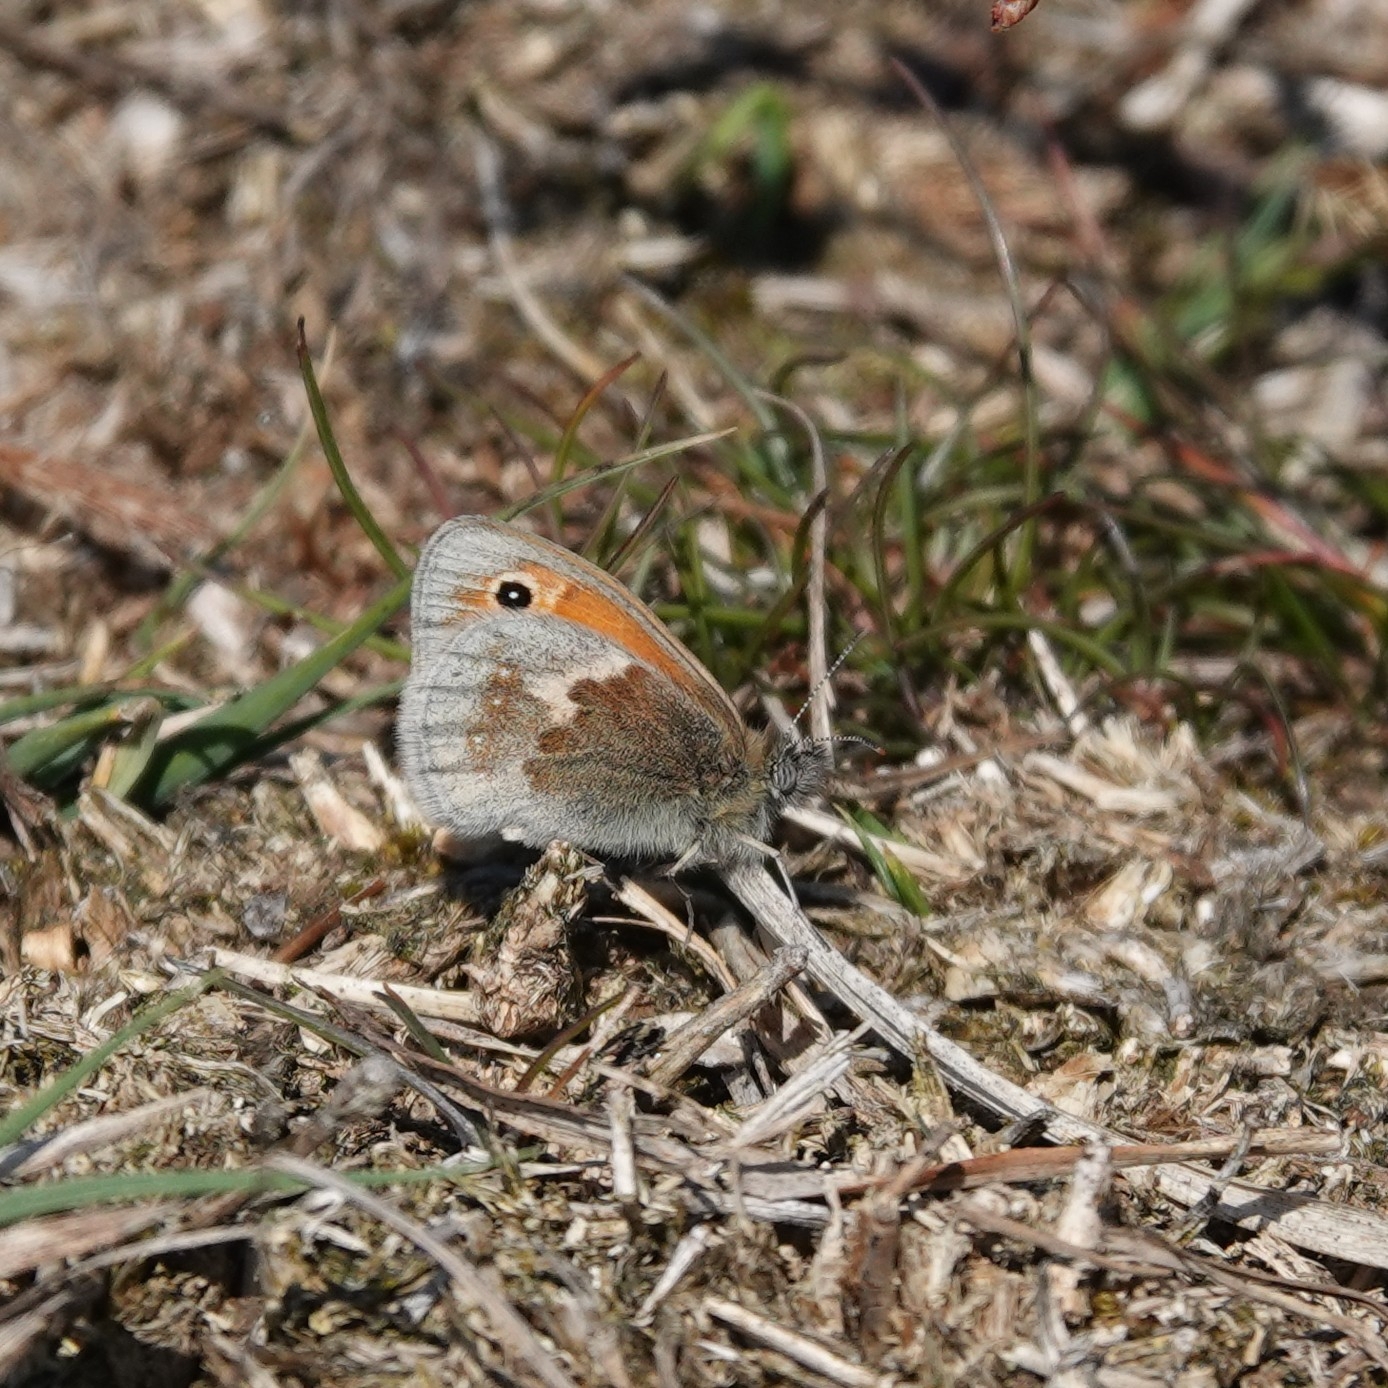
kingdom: Animalia
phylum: Arthropoda
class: Insecta
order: Lepidoptera
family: Nymphalidae
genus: Coenonympha
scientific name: Coenonympha pamphilus
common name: Small heath
